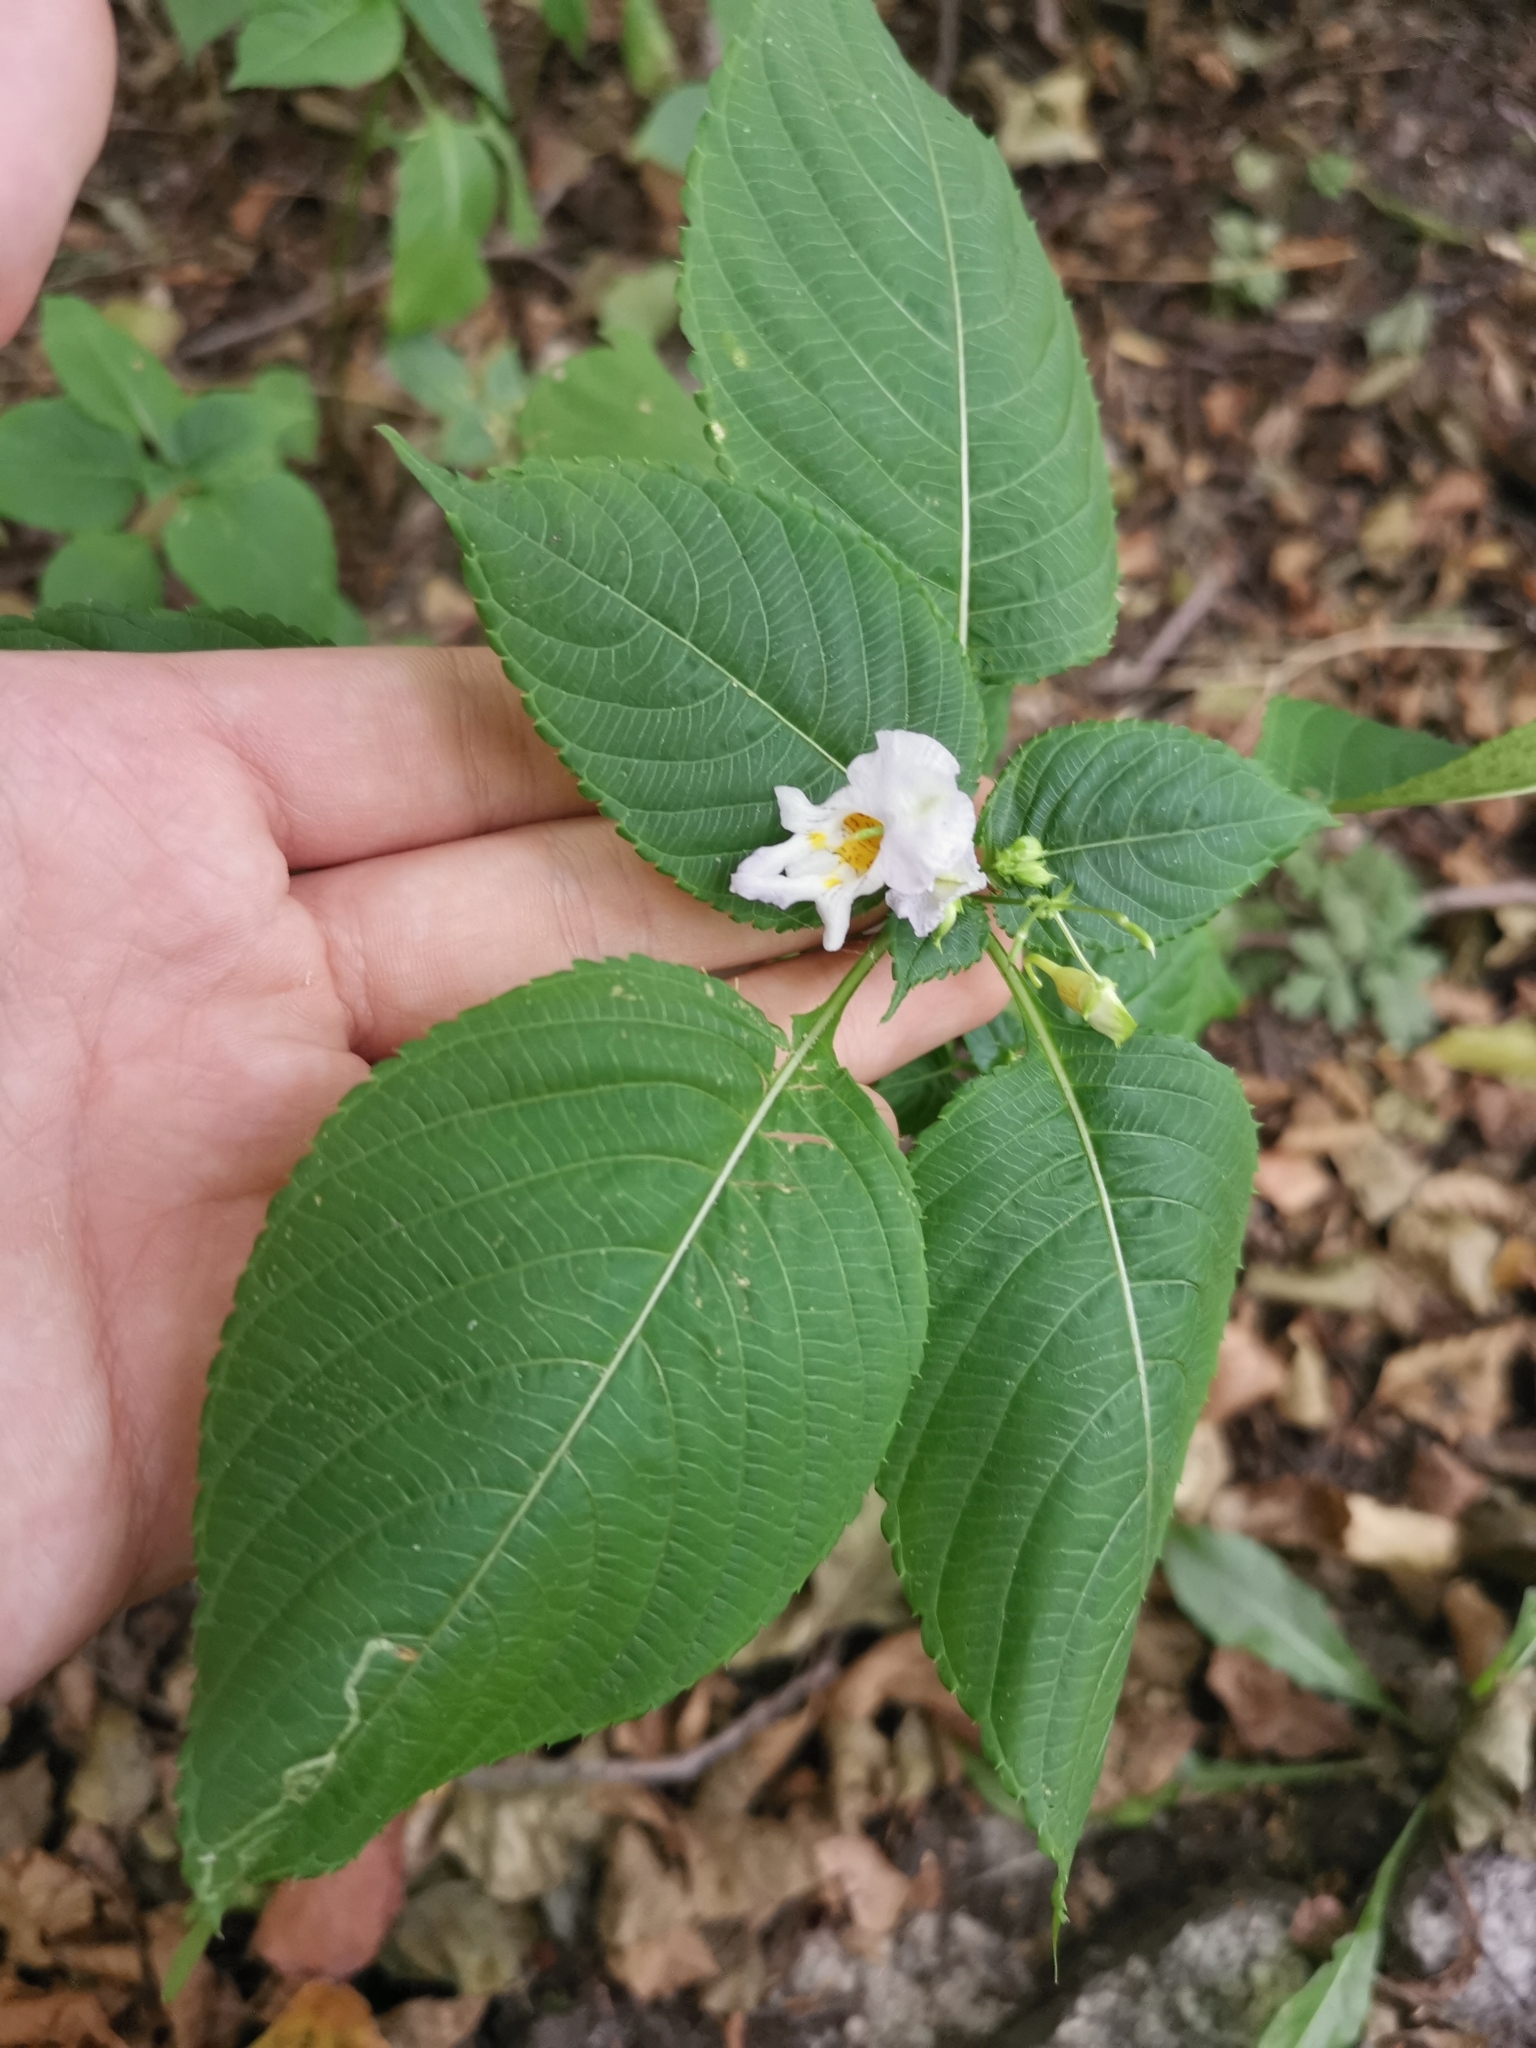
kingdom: Plantae
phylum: Tracheophyta
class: Magnoliopsida
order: Ericales
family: Balsaminaceae
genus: Impatiens
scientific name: Impatiens edgeworthii
